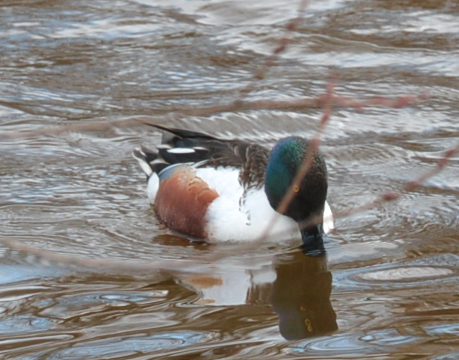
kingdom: Animalia
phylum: Chordata
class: Aves
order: Anseriformes
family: Anatidae
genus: Spatula
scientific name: Spatula clypeata
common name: Northern shoveler
